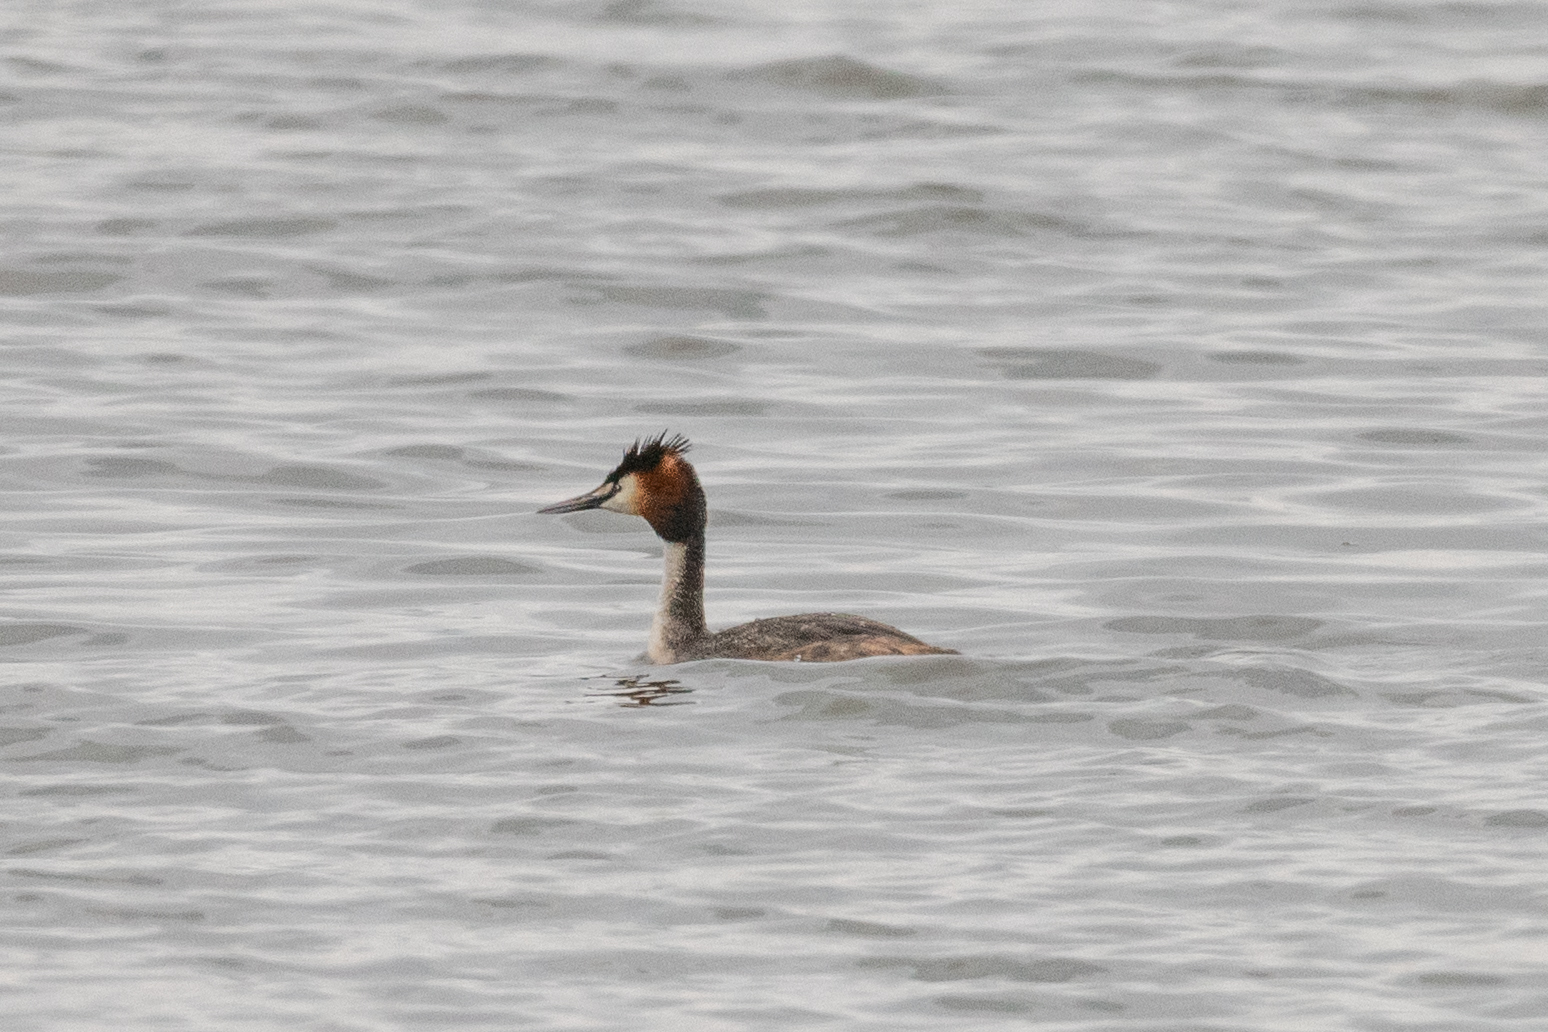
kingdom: Animalia
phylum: Chordata
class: Aves
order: Podicipediformes
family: Podicipedidae
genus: Podiceps
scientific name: Podiceps cristatus
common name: Great crested grebe
